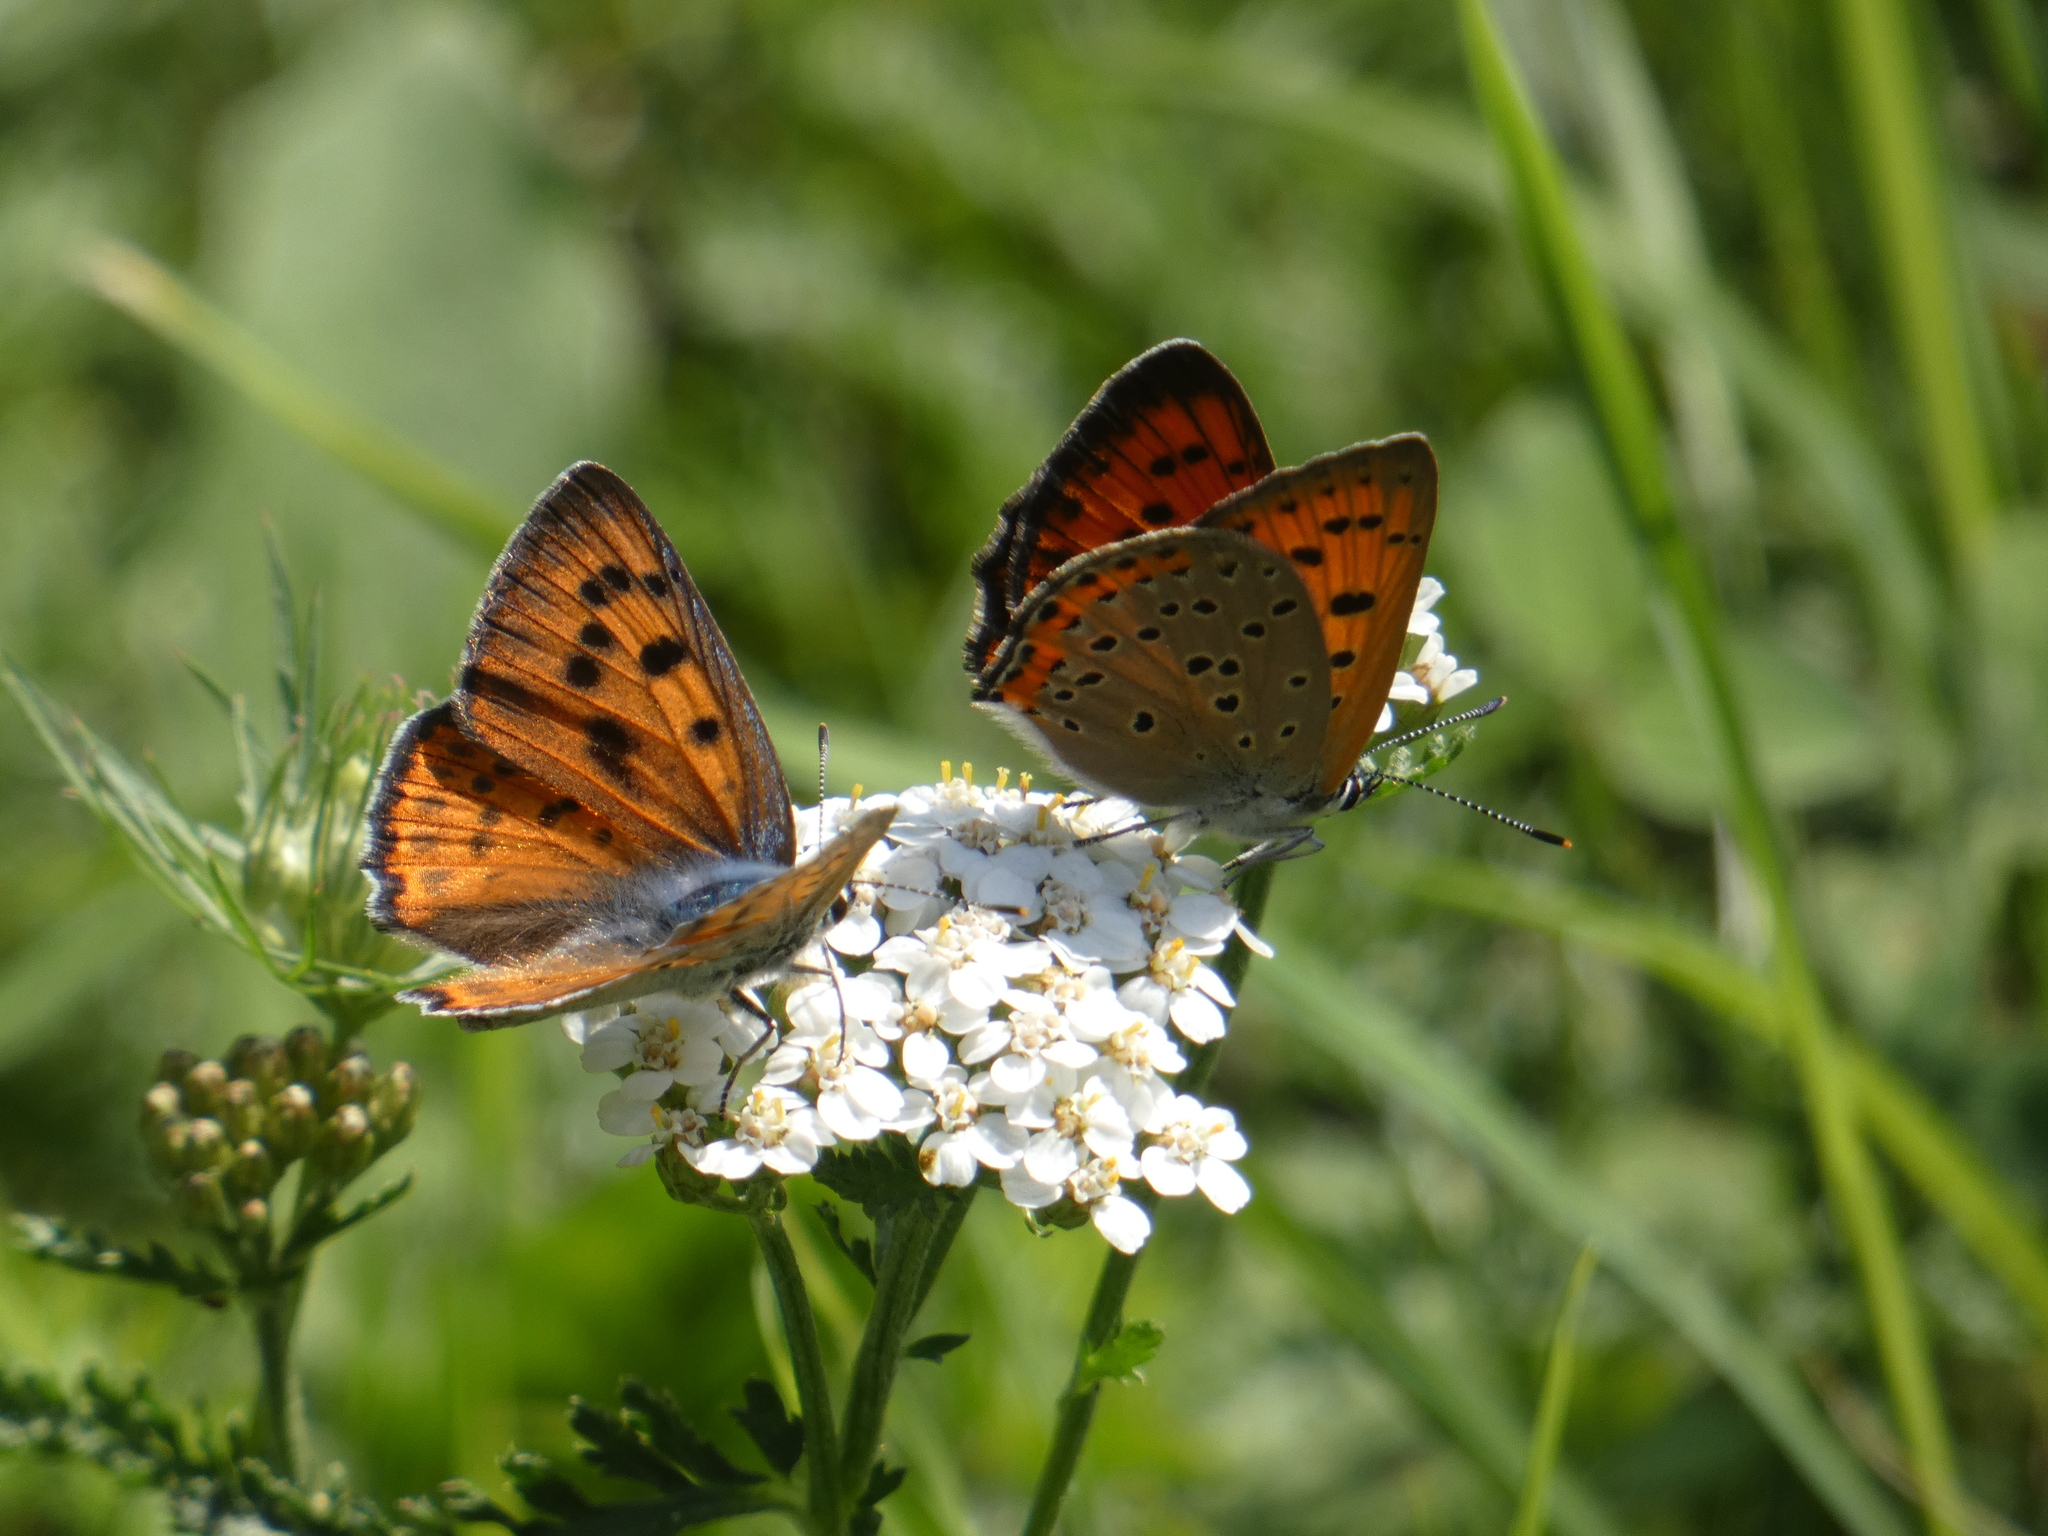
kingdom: Animalia
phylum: Arthropoda
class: Insecta
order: Lepidoptera
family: Lycaenidae
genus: Lycaena
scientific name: Lycaena alciphron
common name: Purple-shot copper
